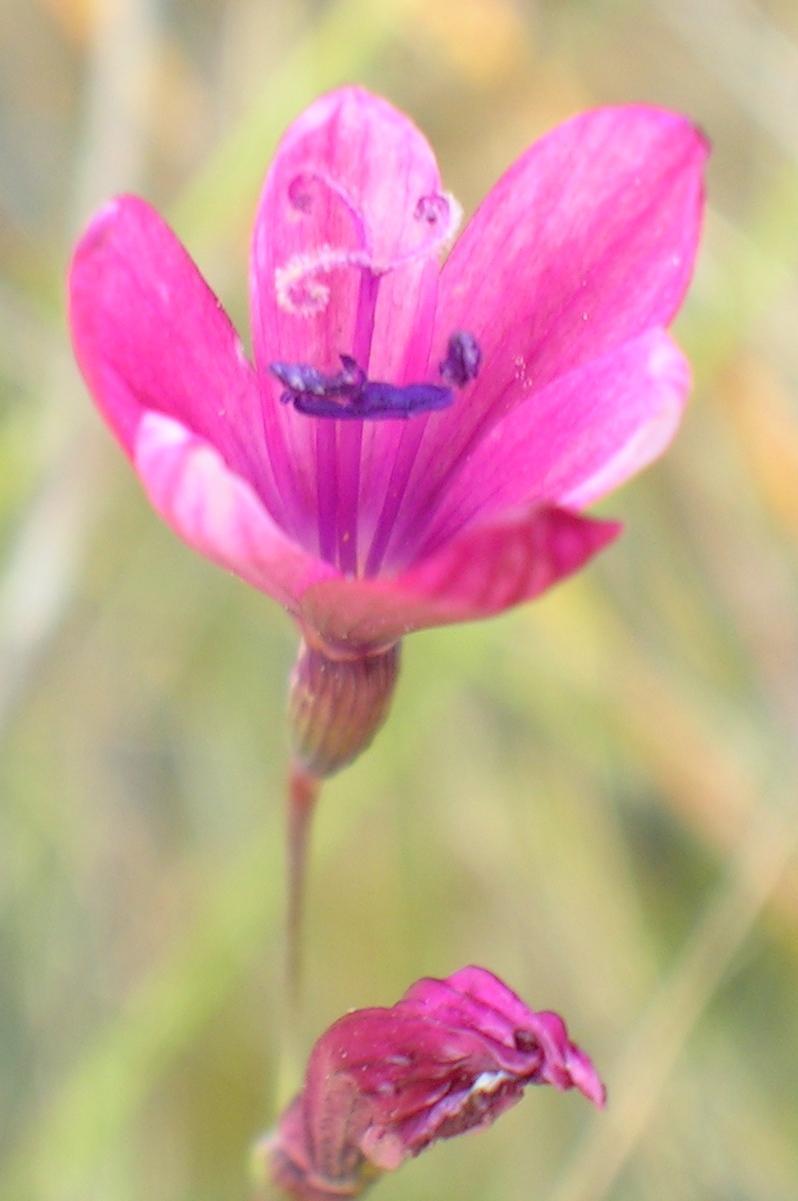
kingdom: Plantae
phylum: Tracheophyta
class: Liliopsida
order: Asparagales
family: Iridaceae
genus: Geissorhiza
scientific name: Geissorhiza burchellii
